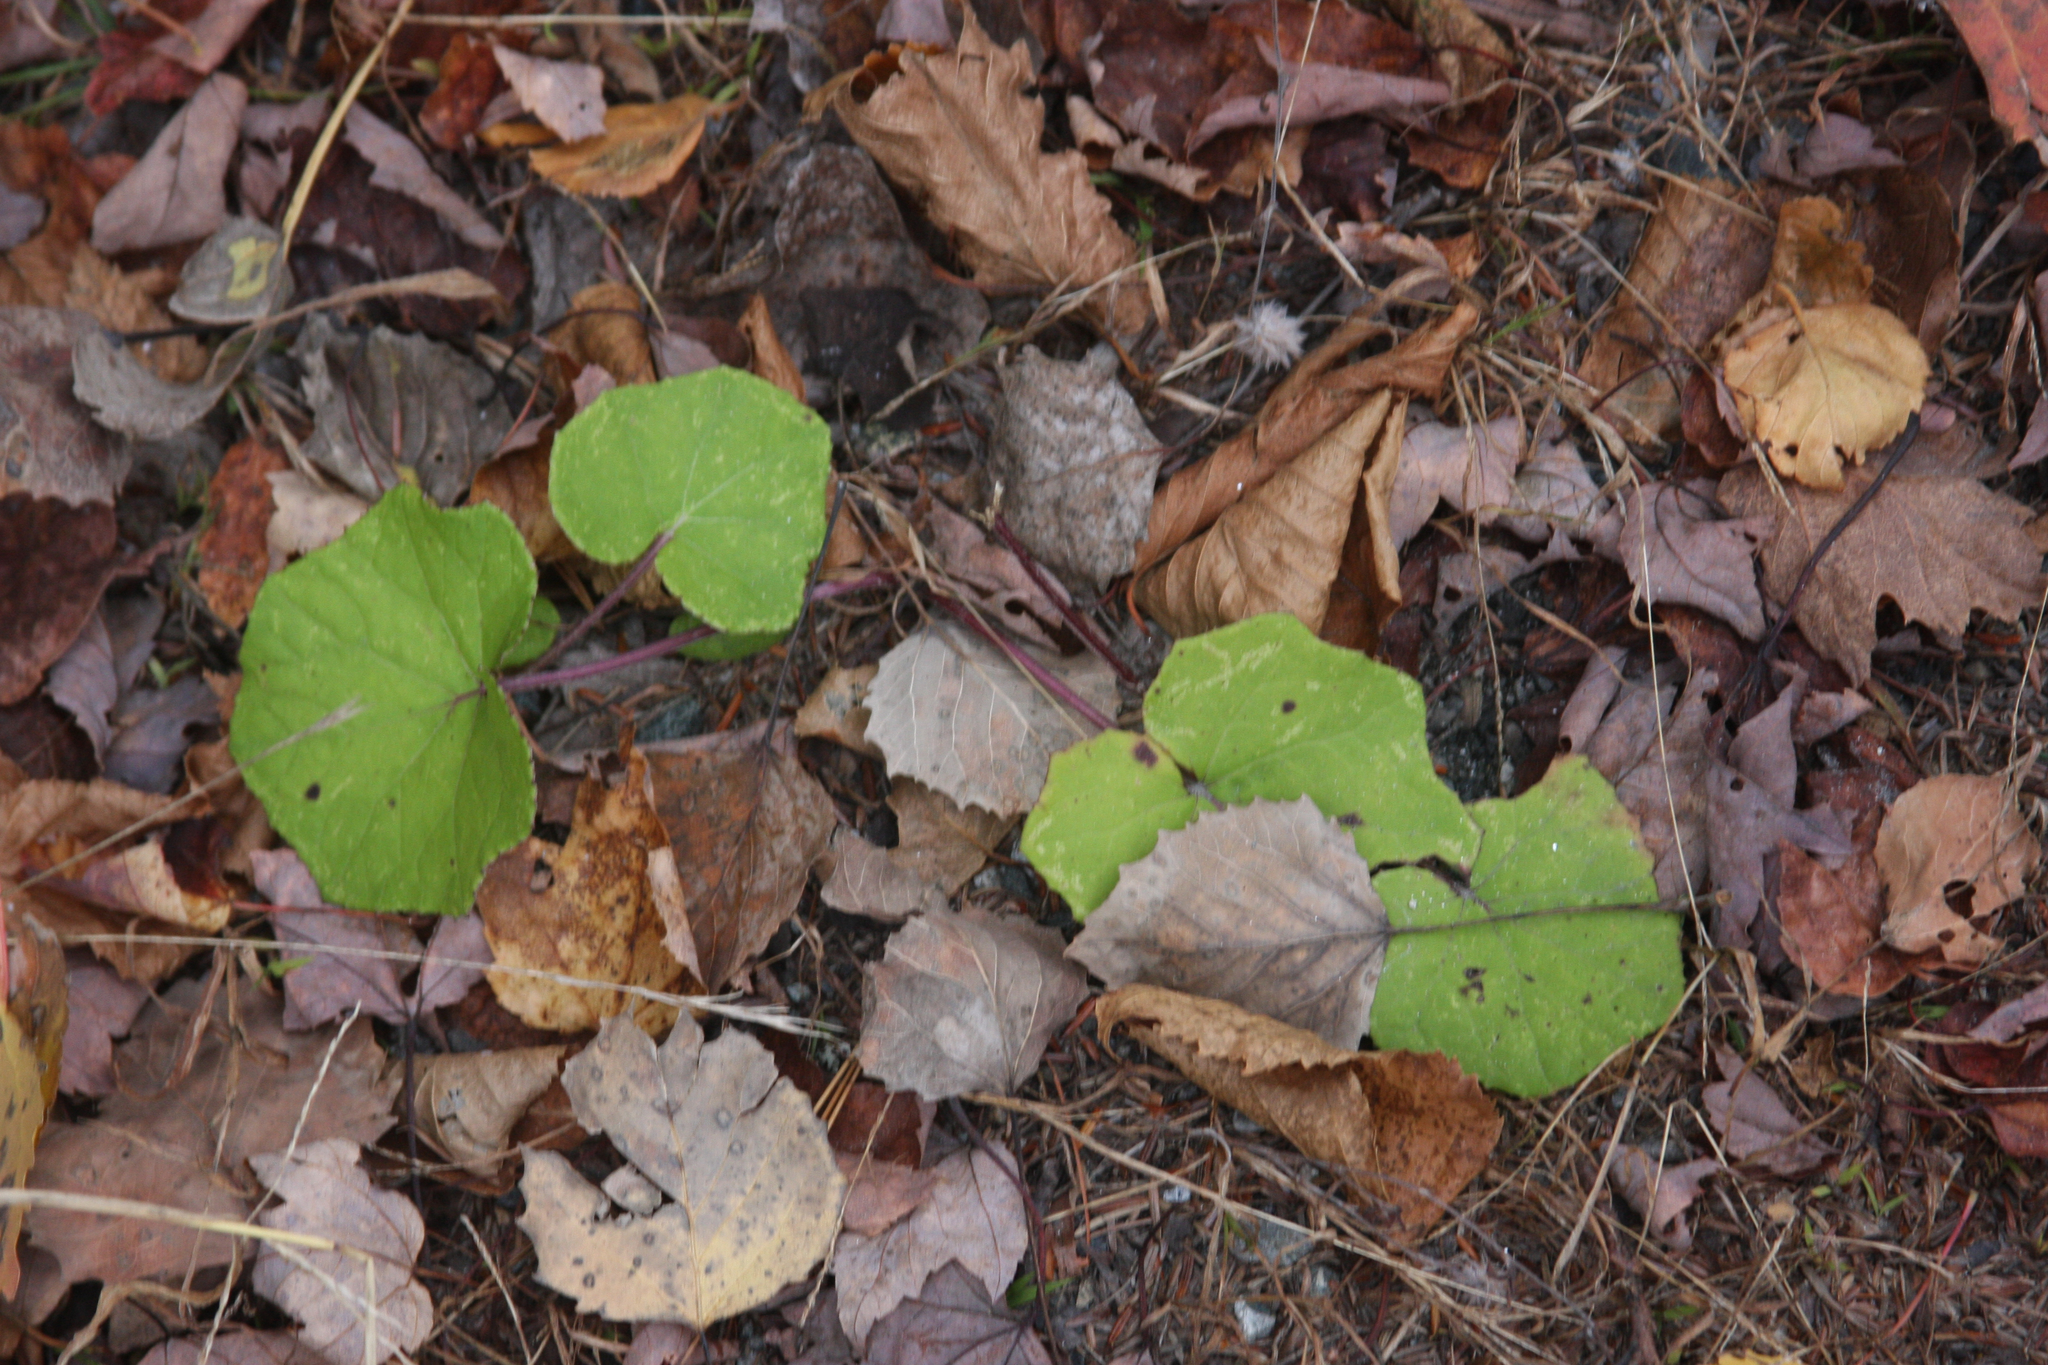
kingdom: Plantae
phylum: Tracheophyta
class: Magnoliopsida
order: Asterales
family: Asteraceae
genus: Tussilago
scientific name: Tussilago farfara
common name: Coltsfoot
